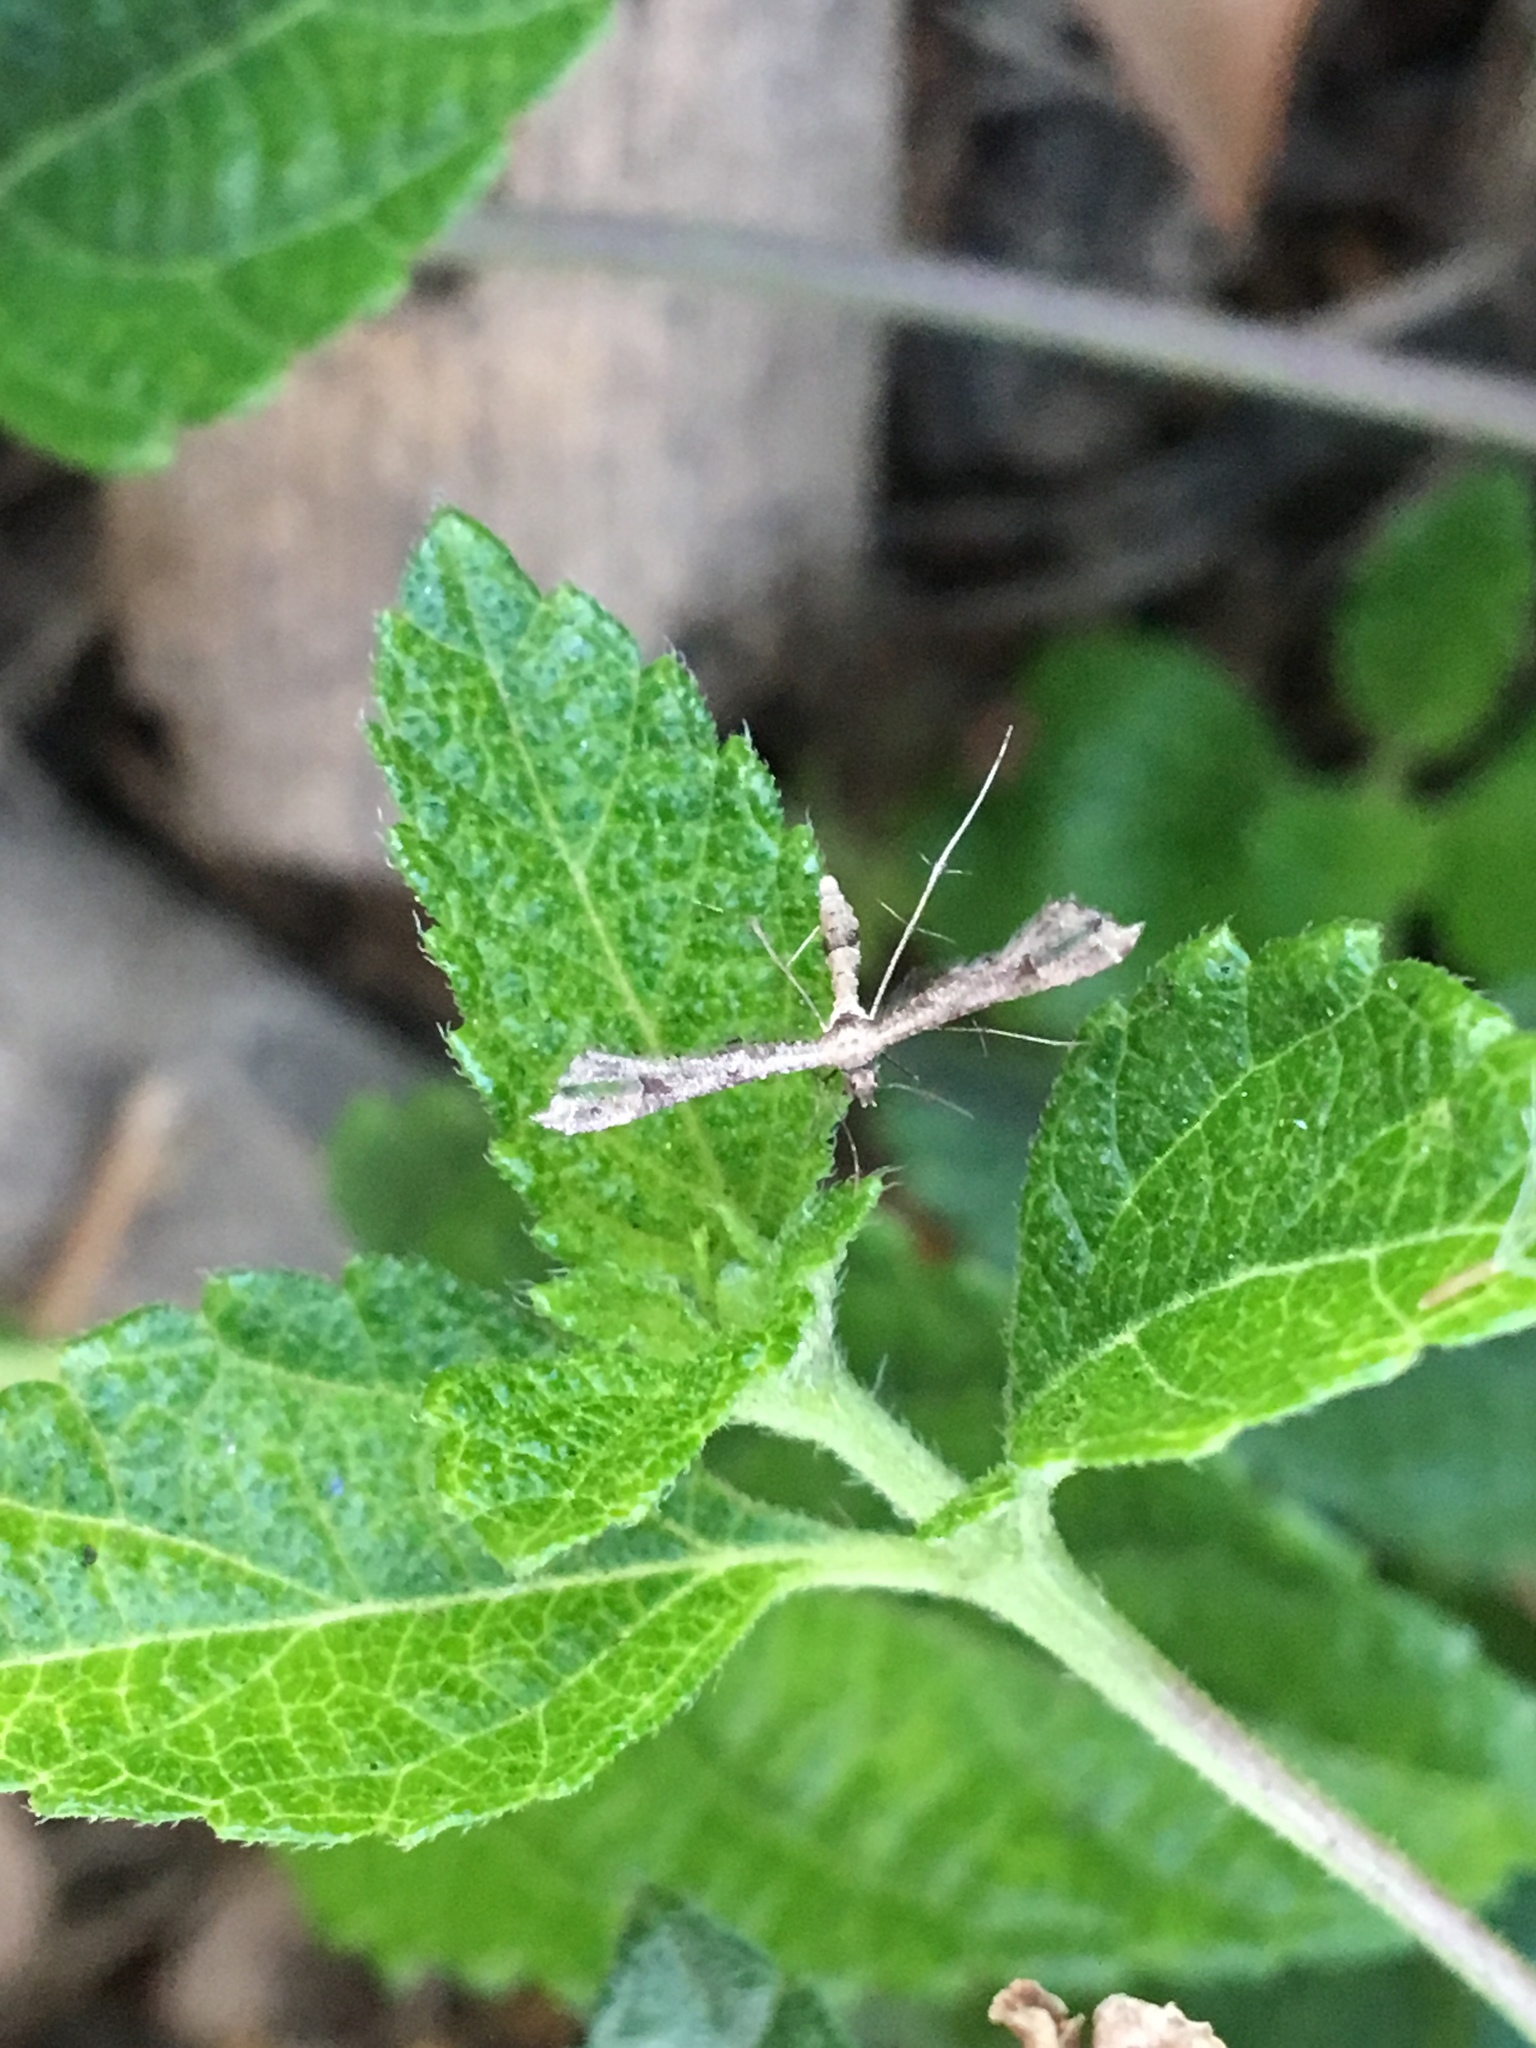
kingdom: Animalia
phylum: Arthropoda
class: Insecta
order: Lepidoptera
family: Pterophoridae
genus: Lantanophaga
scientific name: Lantanophaga pusillidactylus
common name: Moth
